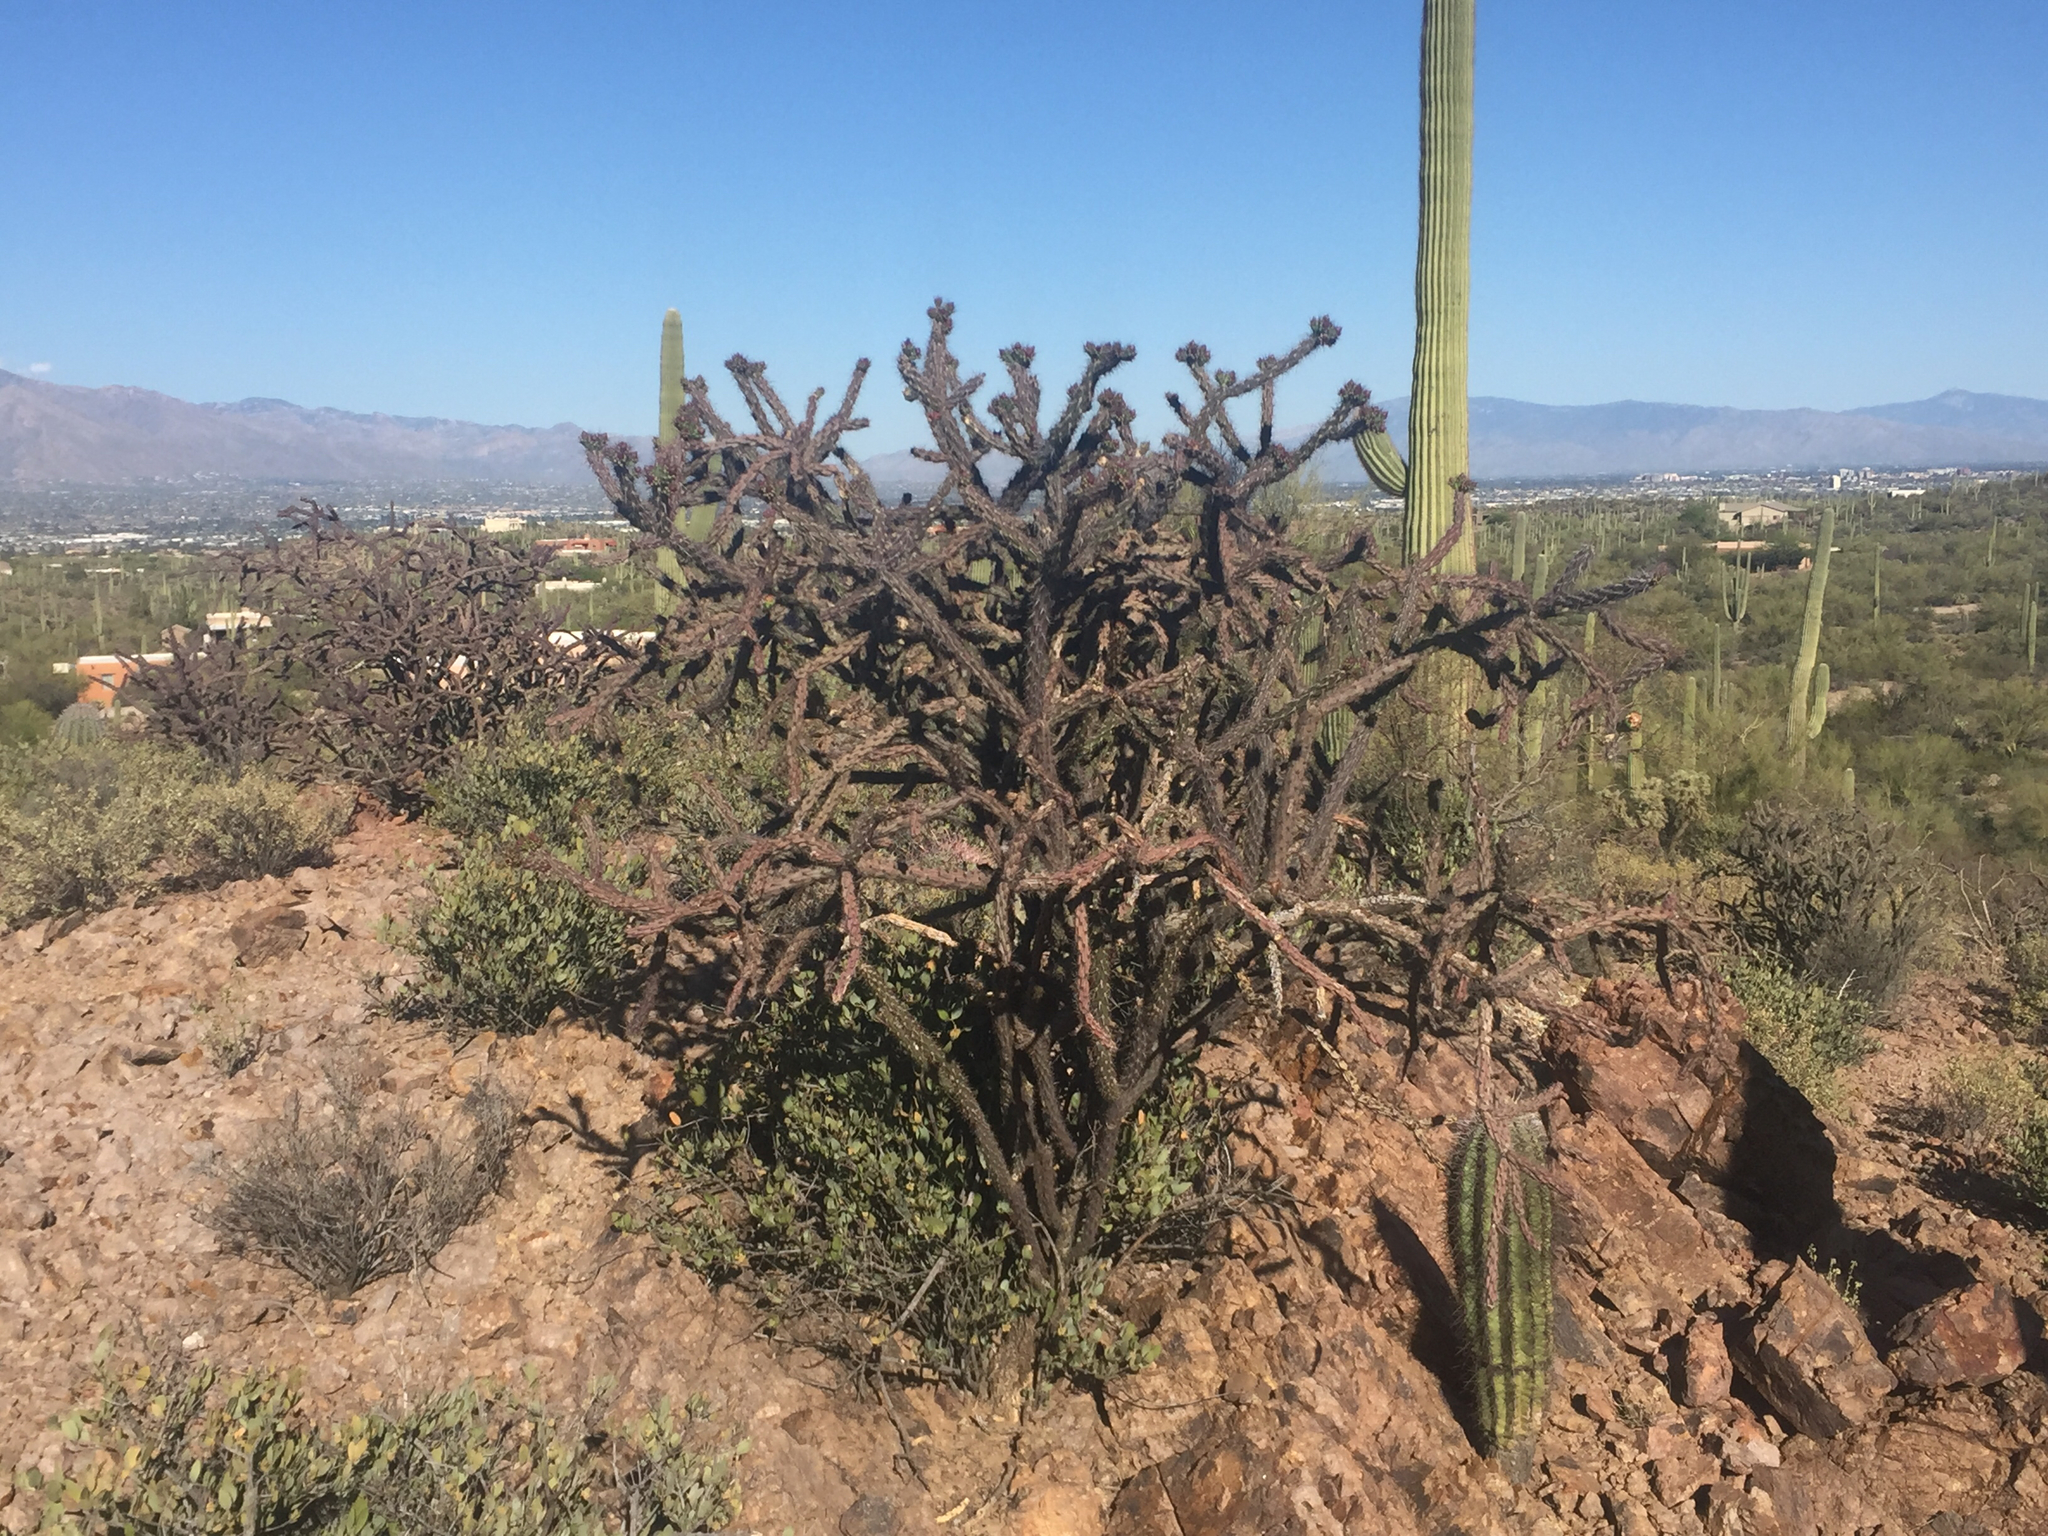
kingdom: Plantae
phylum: Tracheophyta
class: Magnoliopsida
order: Caryophyllales
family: Cactaceae
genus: Cylindropuntia
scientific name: Cylindropuntia acanthocarpa
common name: Buckhorn cholla
